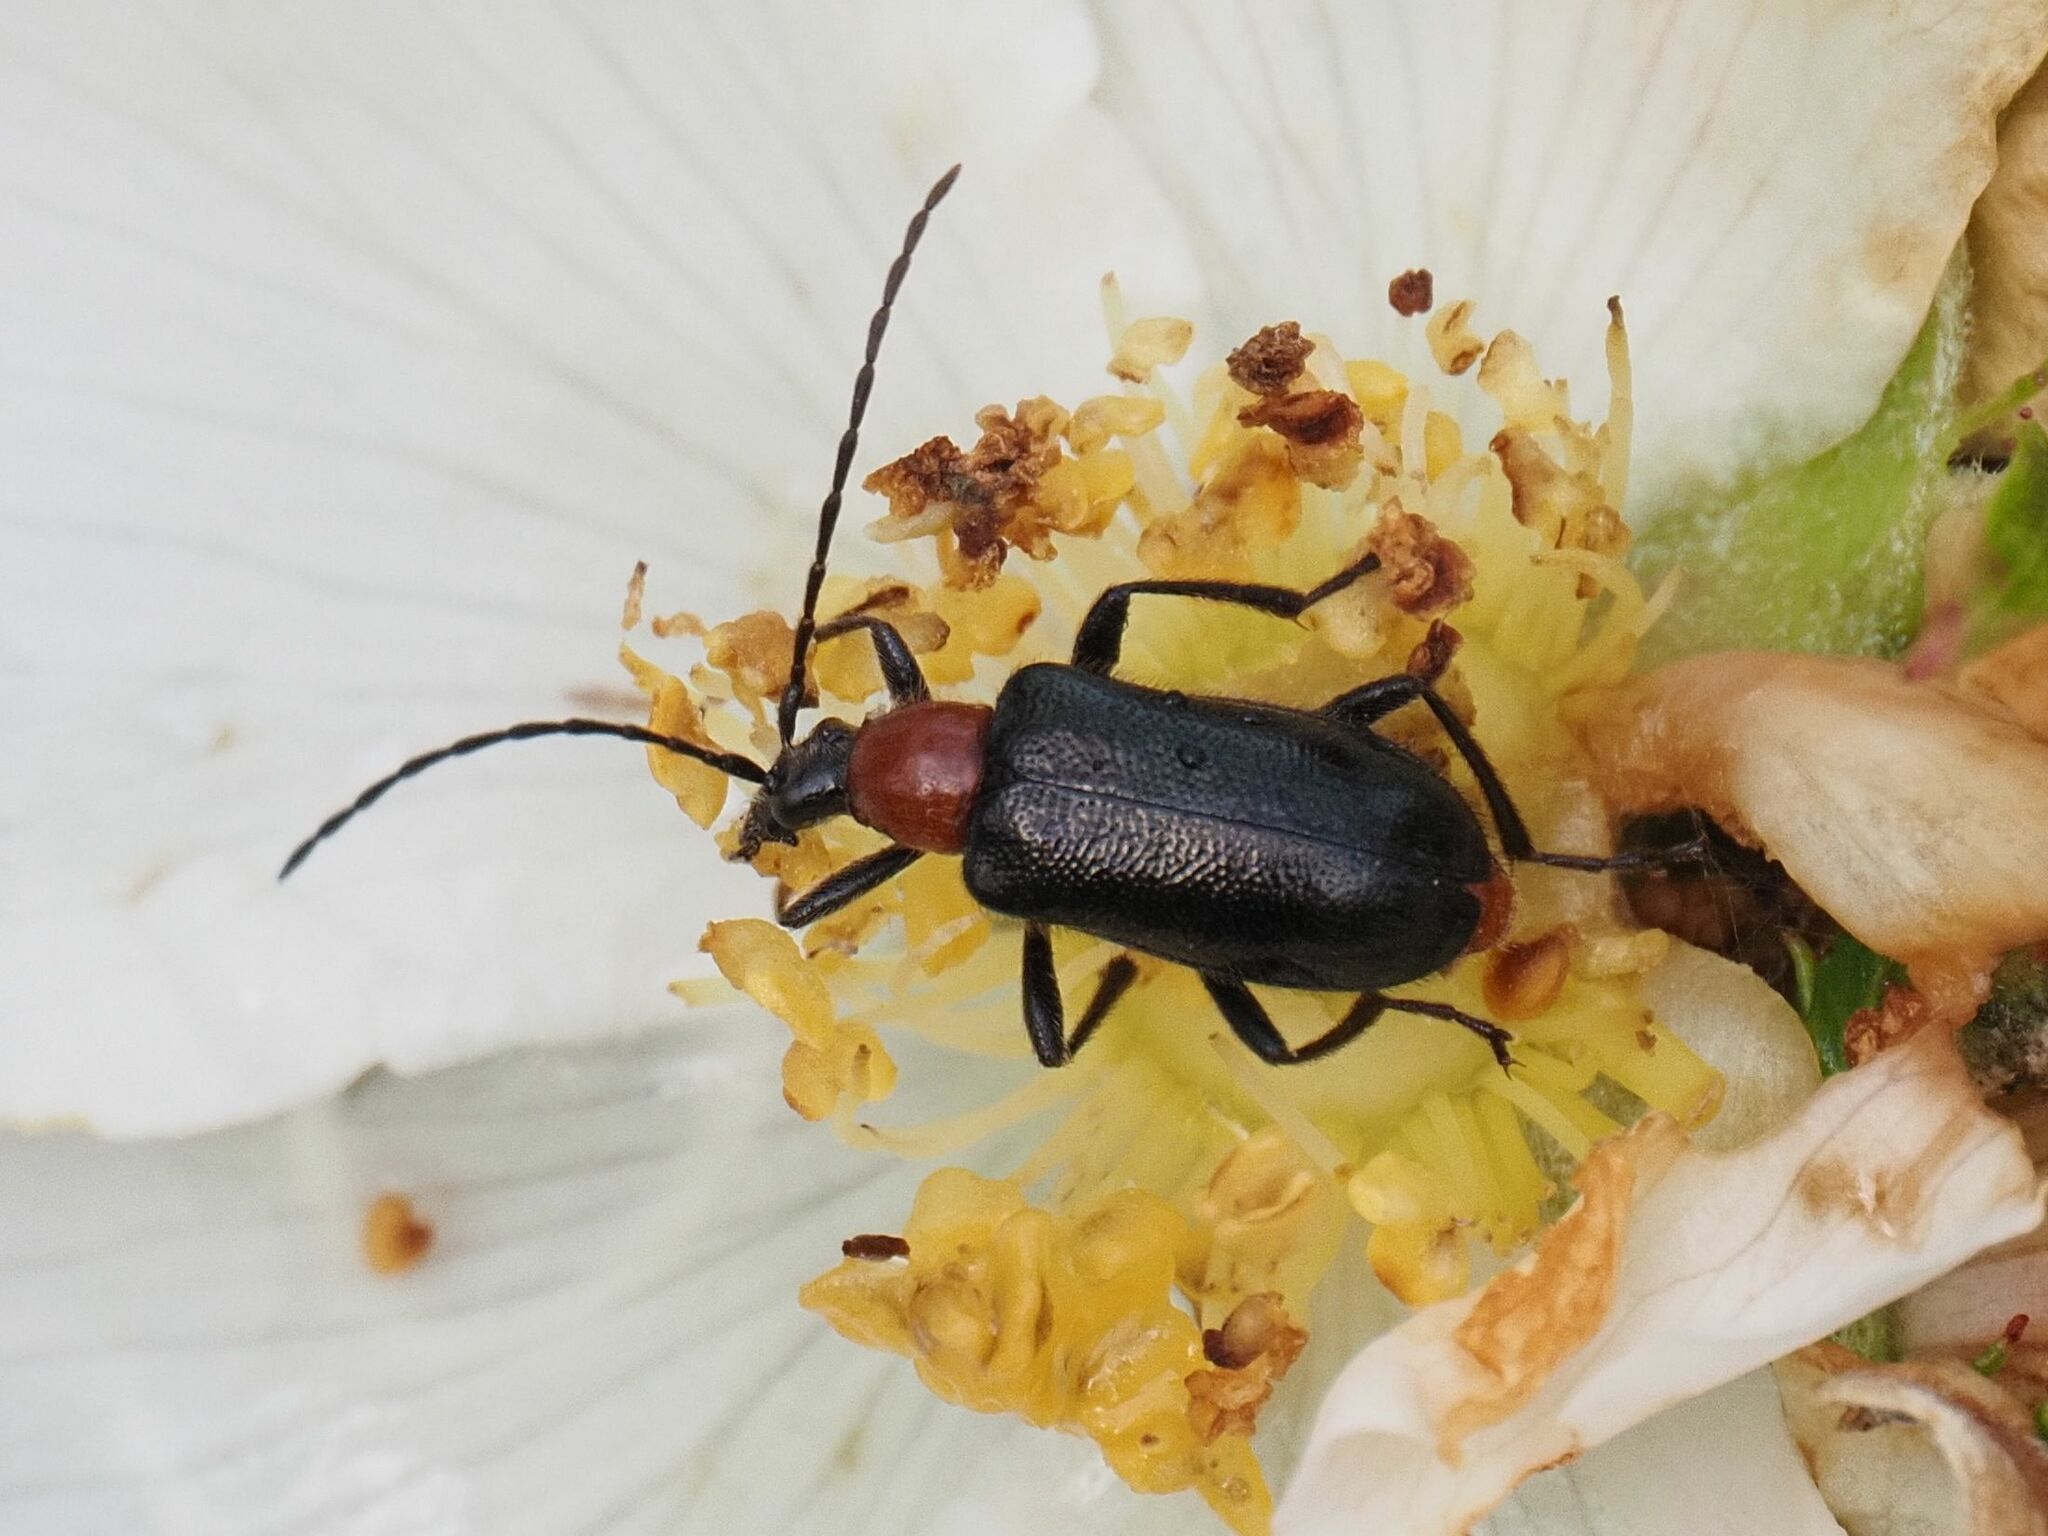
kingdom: Animalia
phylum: Arthropoda
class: Insecta
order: Coleoptera
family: Cerambycidae
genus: Dinoptera
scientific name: Dinoptera collaris
